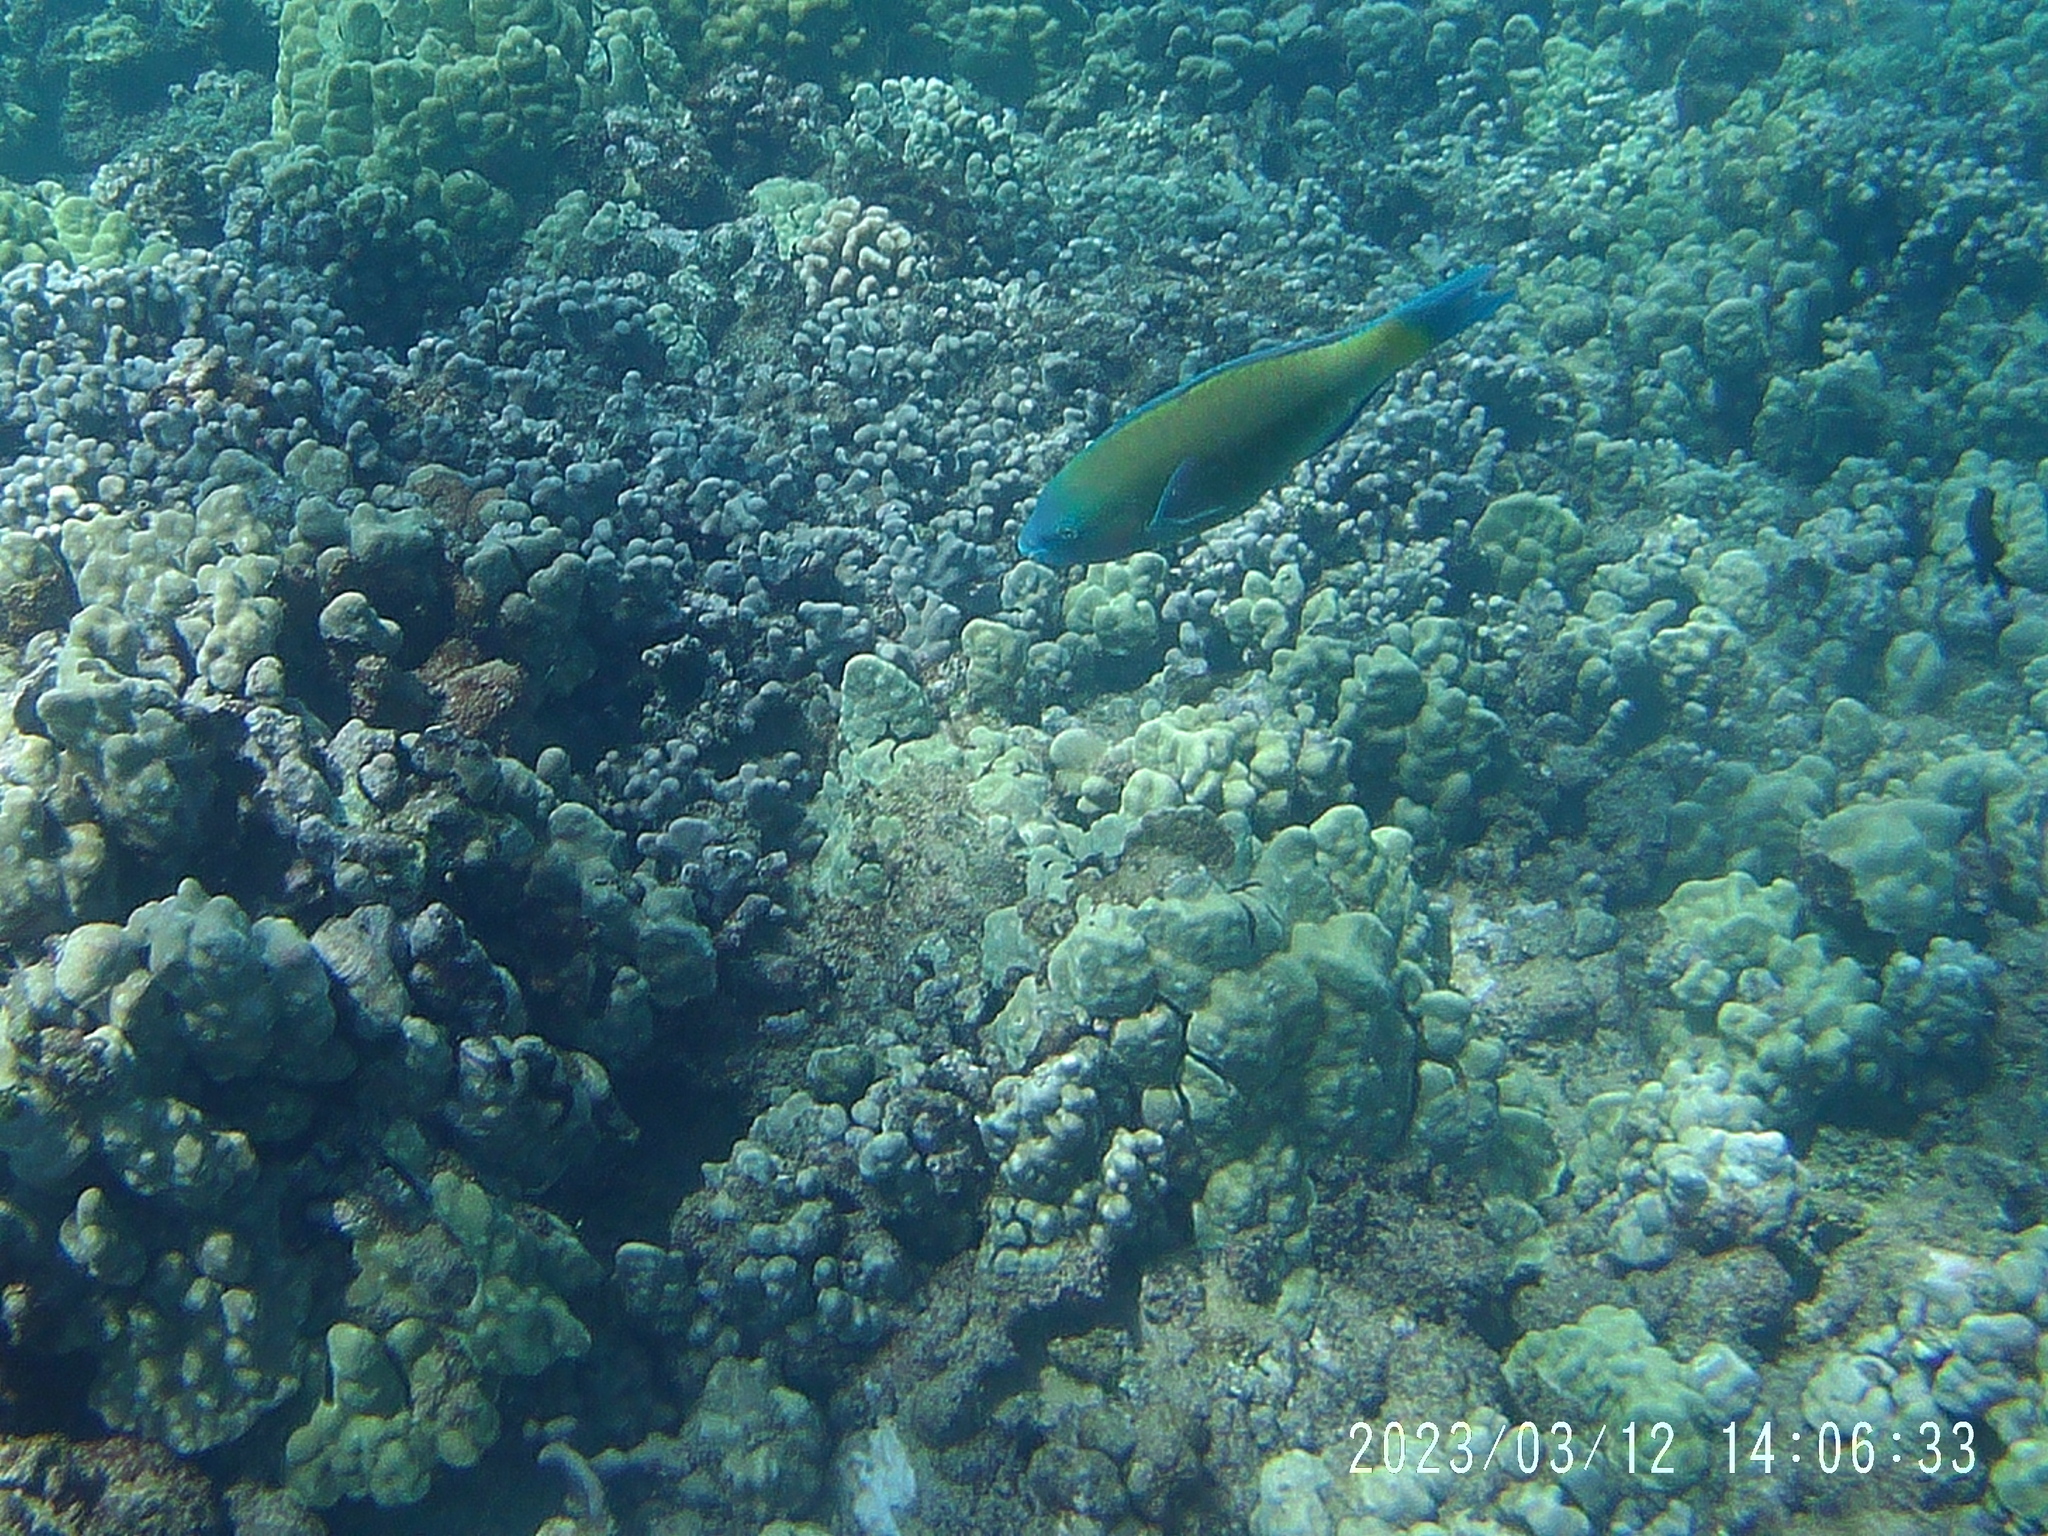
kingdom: Animalia
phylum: Chordata
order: Perciformes
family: Scaridae
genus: Scarus
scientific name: Scarus psittacus
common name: Palenose parrotfish
